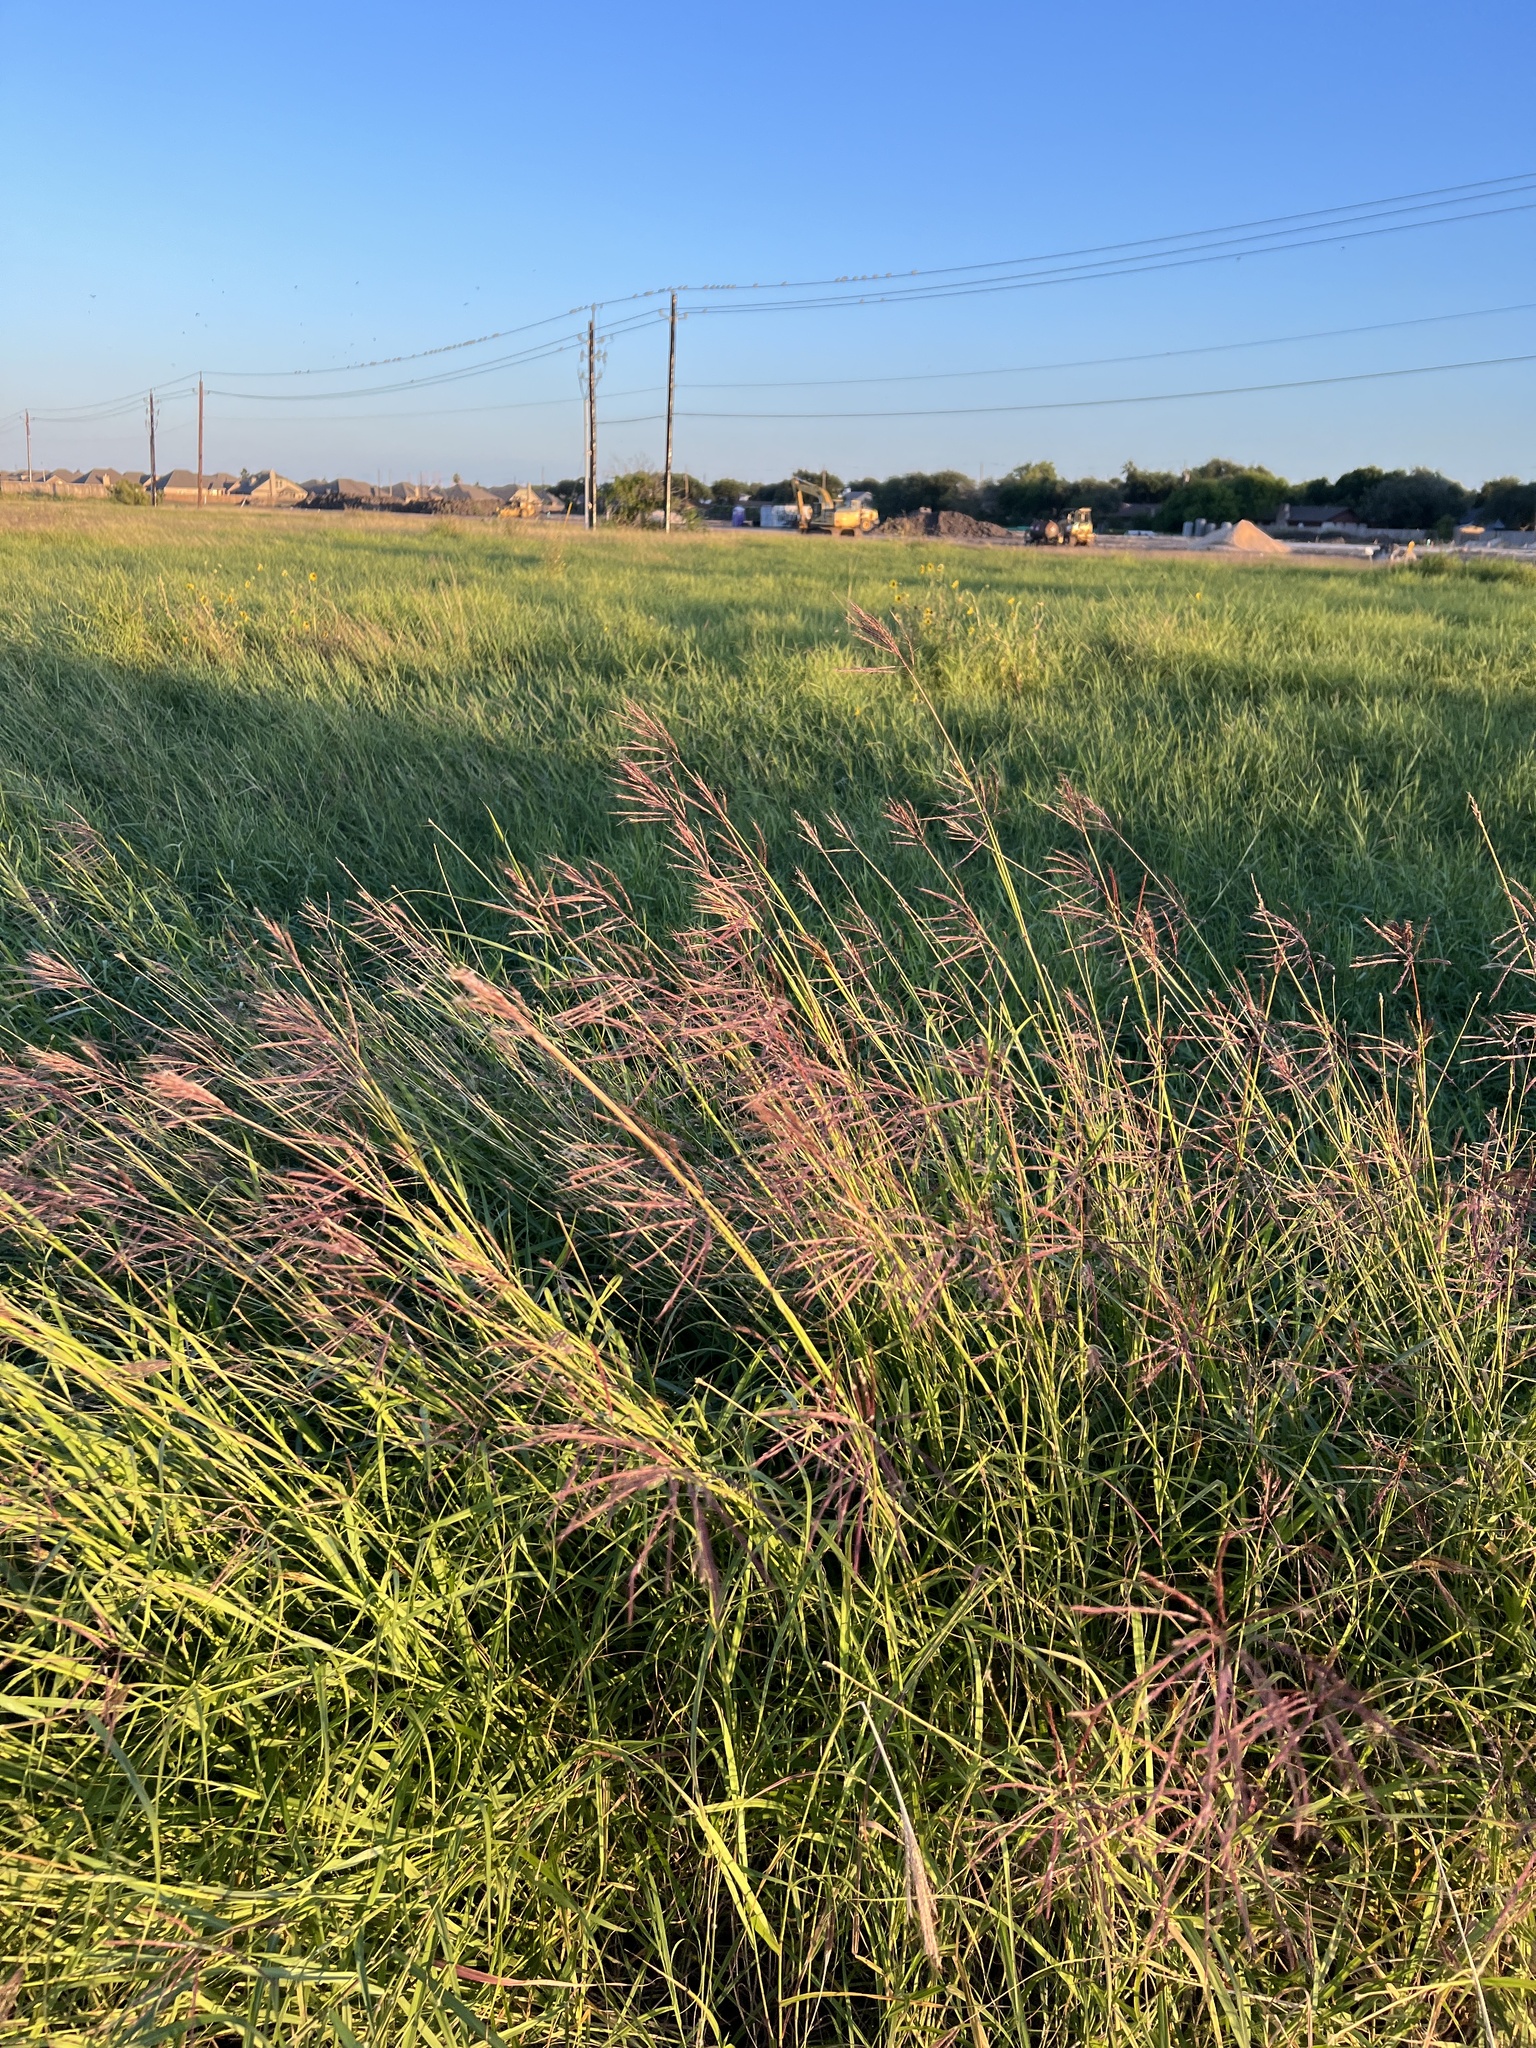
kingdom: Plantae
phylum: Tracheophyta
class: Liliopsida
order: Poales
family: Poaceae
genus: Bothriochloa
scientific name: Bothriochloa bladhii
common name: Caucasian bluestem
